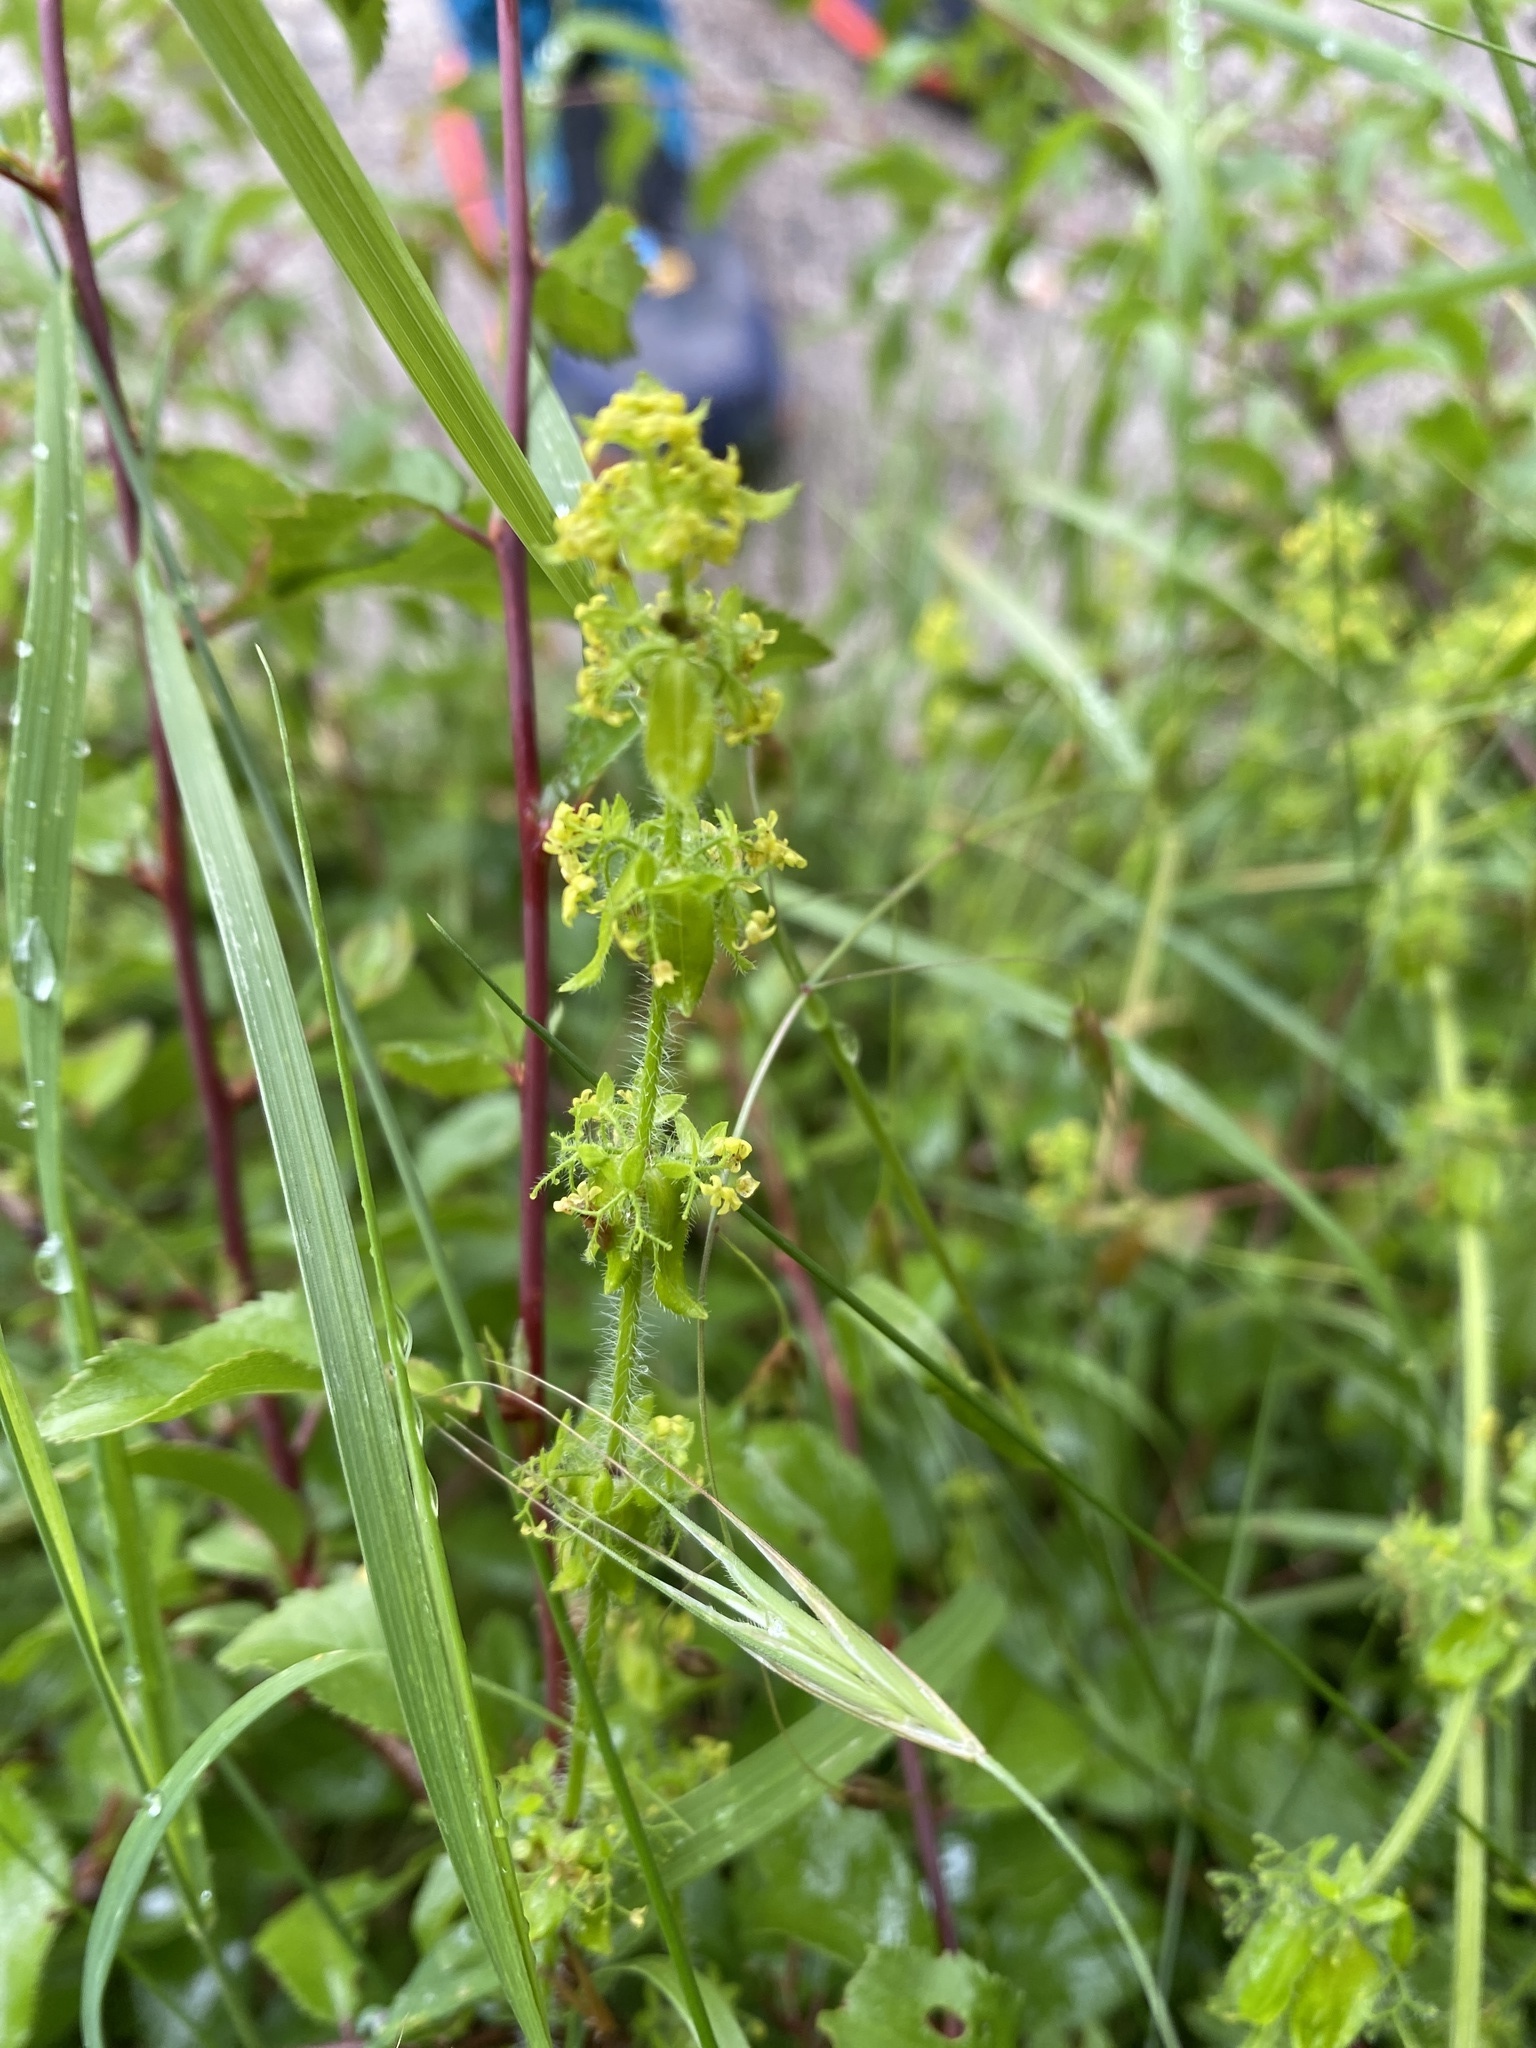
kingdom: Plantae
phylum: Tracheophyta
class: Magnoliopsida
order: Gentianales
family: Rubiaceae
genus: Cruciata
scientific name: Cruciata laevipes
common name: Crosswort
